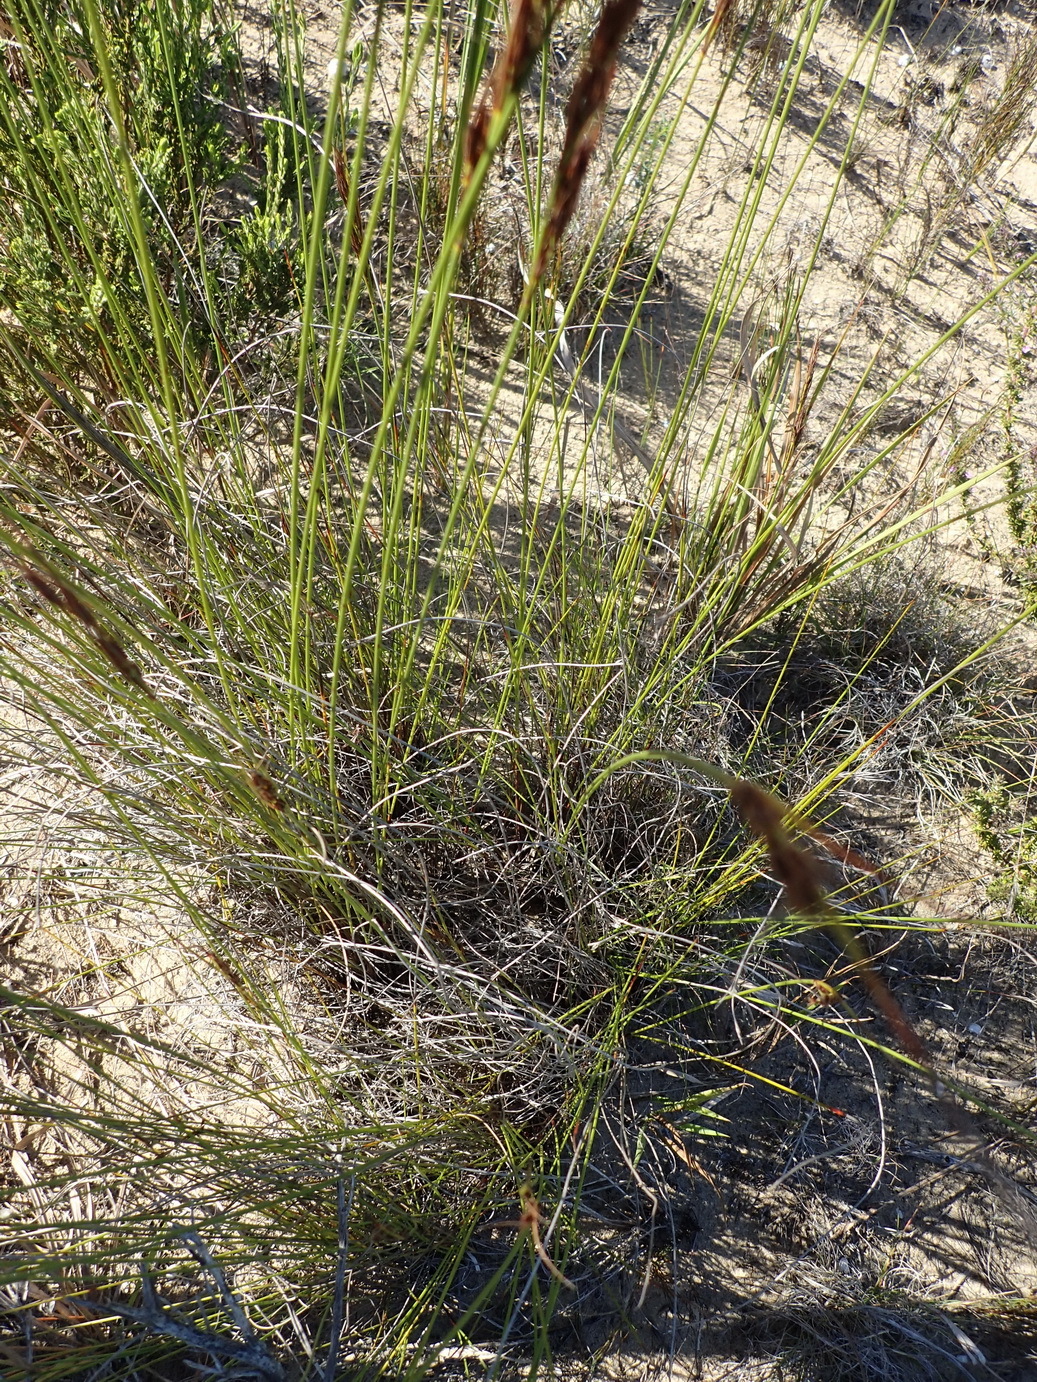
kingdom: Plantae
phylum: Tracheophyta
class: Liliopsida
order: Poales
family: Cyperaceae
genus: Schoenus
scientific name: Schoenus graciliculmis
